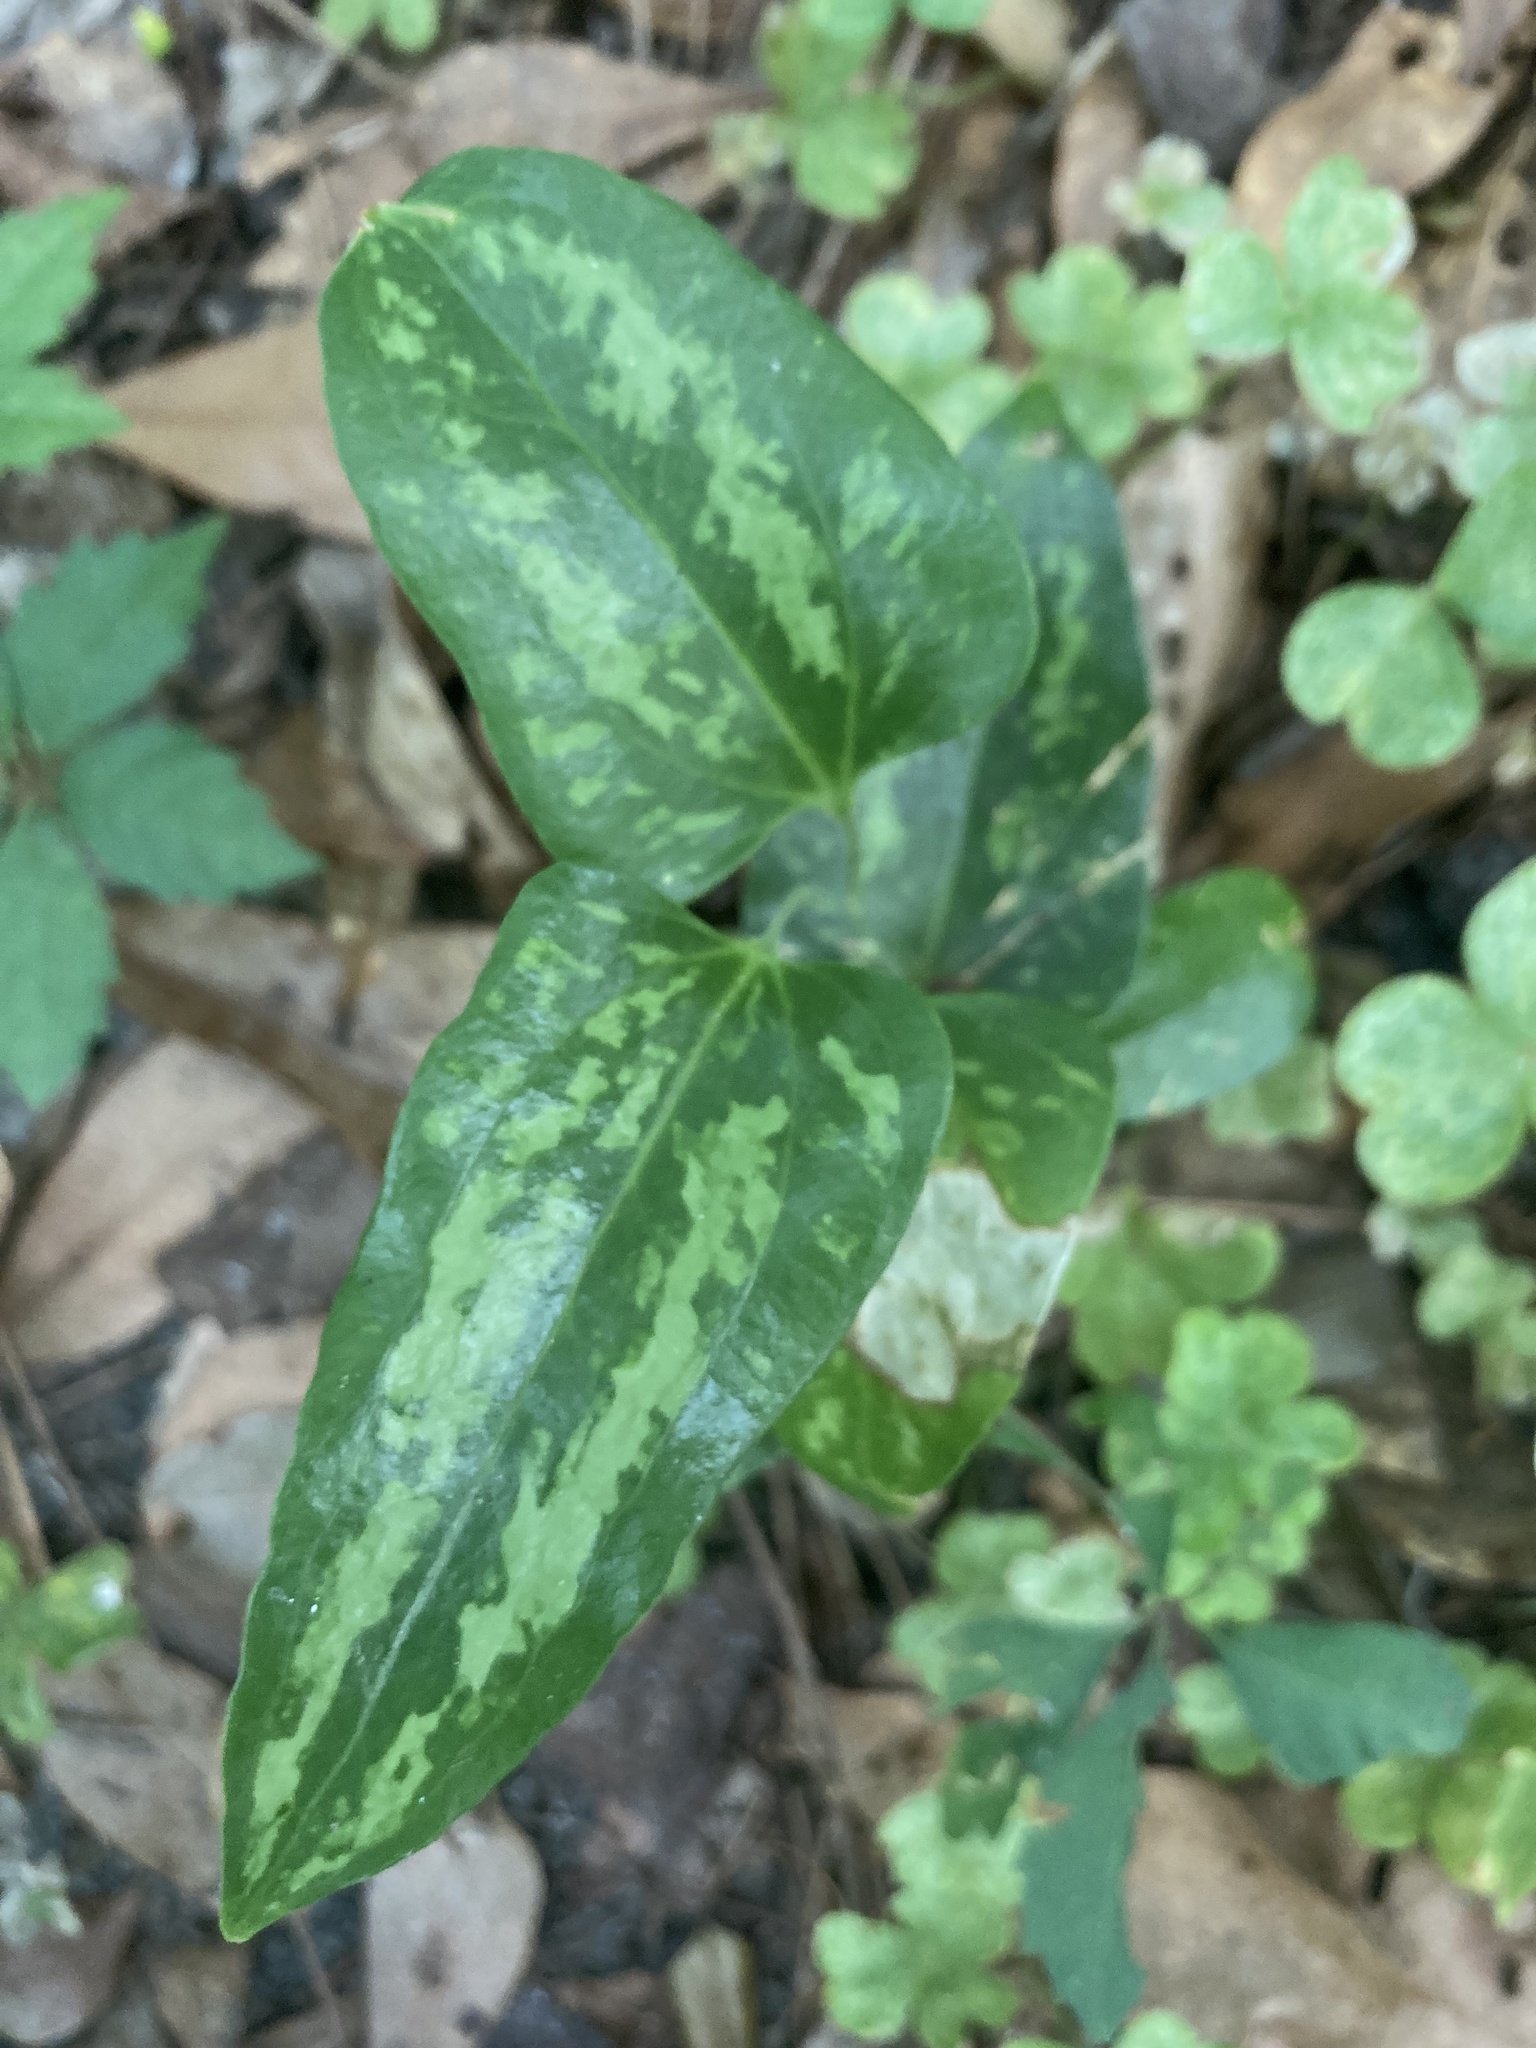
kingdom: Plantae
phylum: Tracheophyta
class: Liliopsida
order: Liliales
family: Smilacaceae
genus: Smilax
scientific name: Smilax bona-nox
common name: Catbrier
